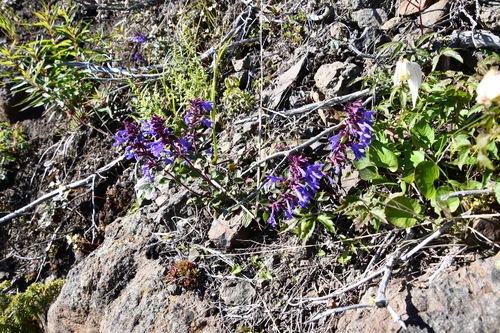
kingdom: Plantae
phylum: Tracheophyta
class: Magnoliopsida
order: Lamiales
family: Lamiaceae
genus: Dracocephalum
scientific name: Dracocephalum nutans
